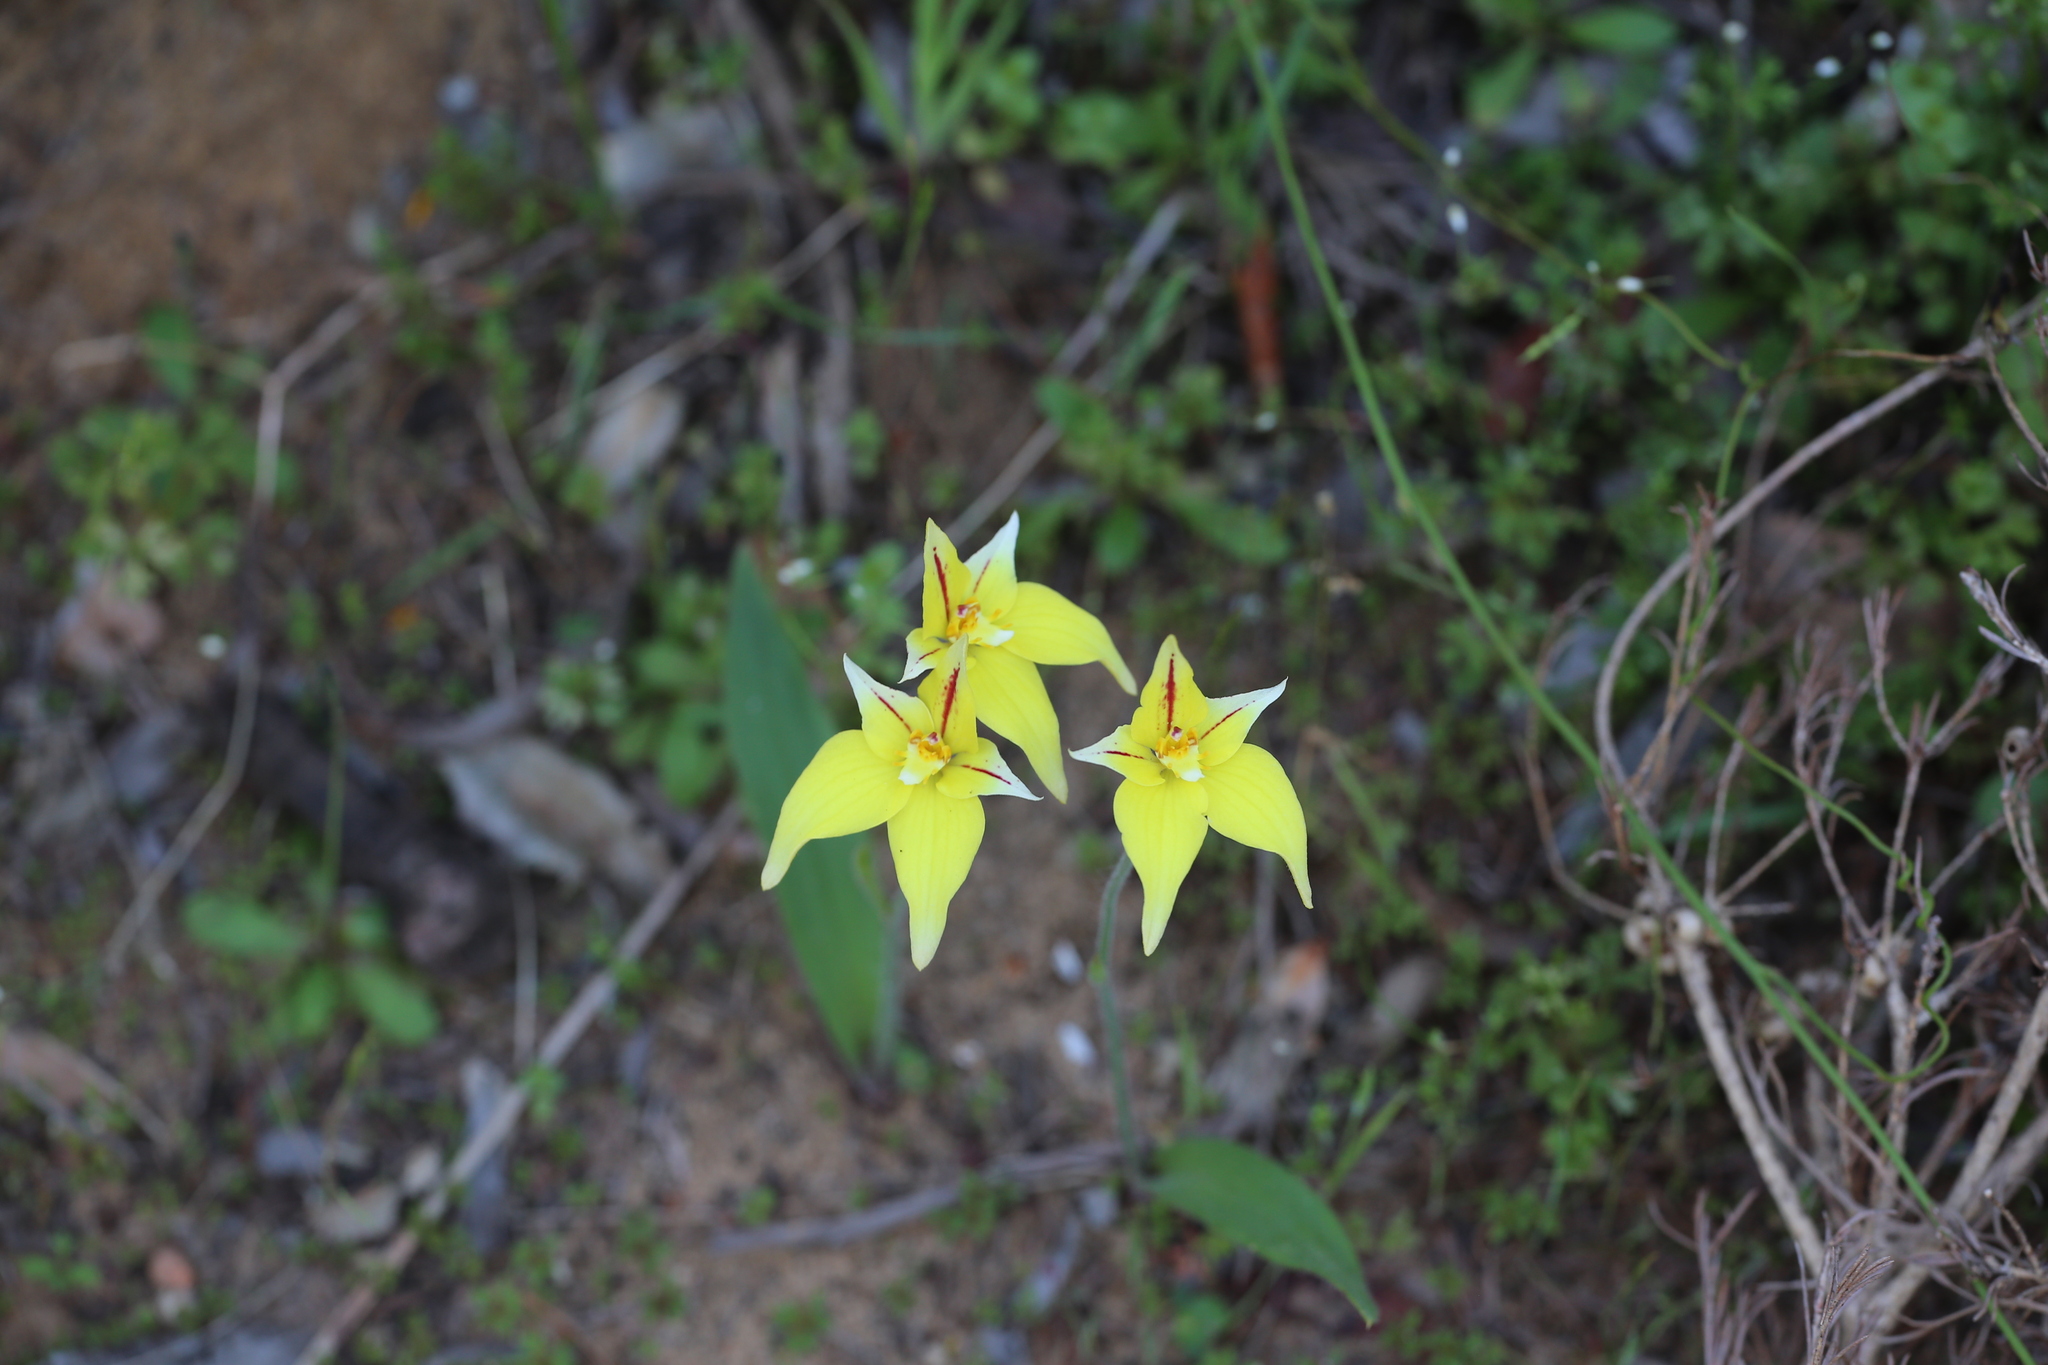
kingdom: Plantae
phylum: Tracheophyta
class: Liliopsida
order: Asparagales
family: Orchidaceae
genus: Caladenia
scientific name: Caladenia flava
